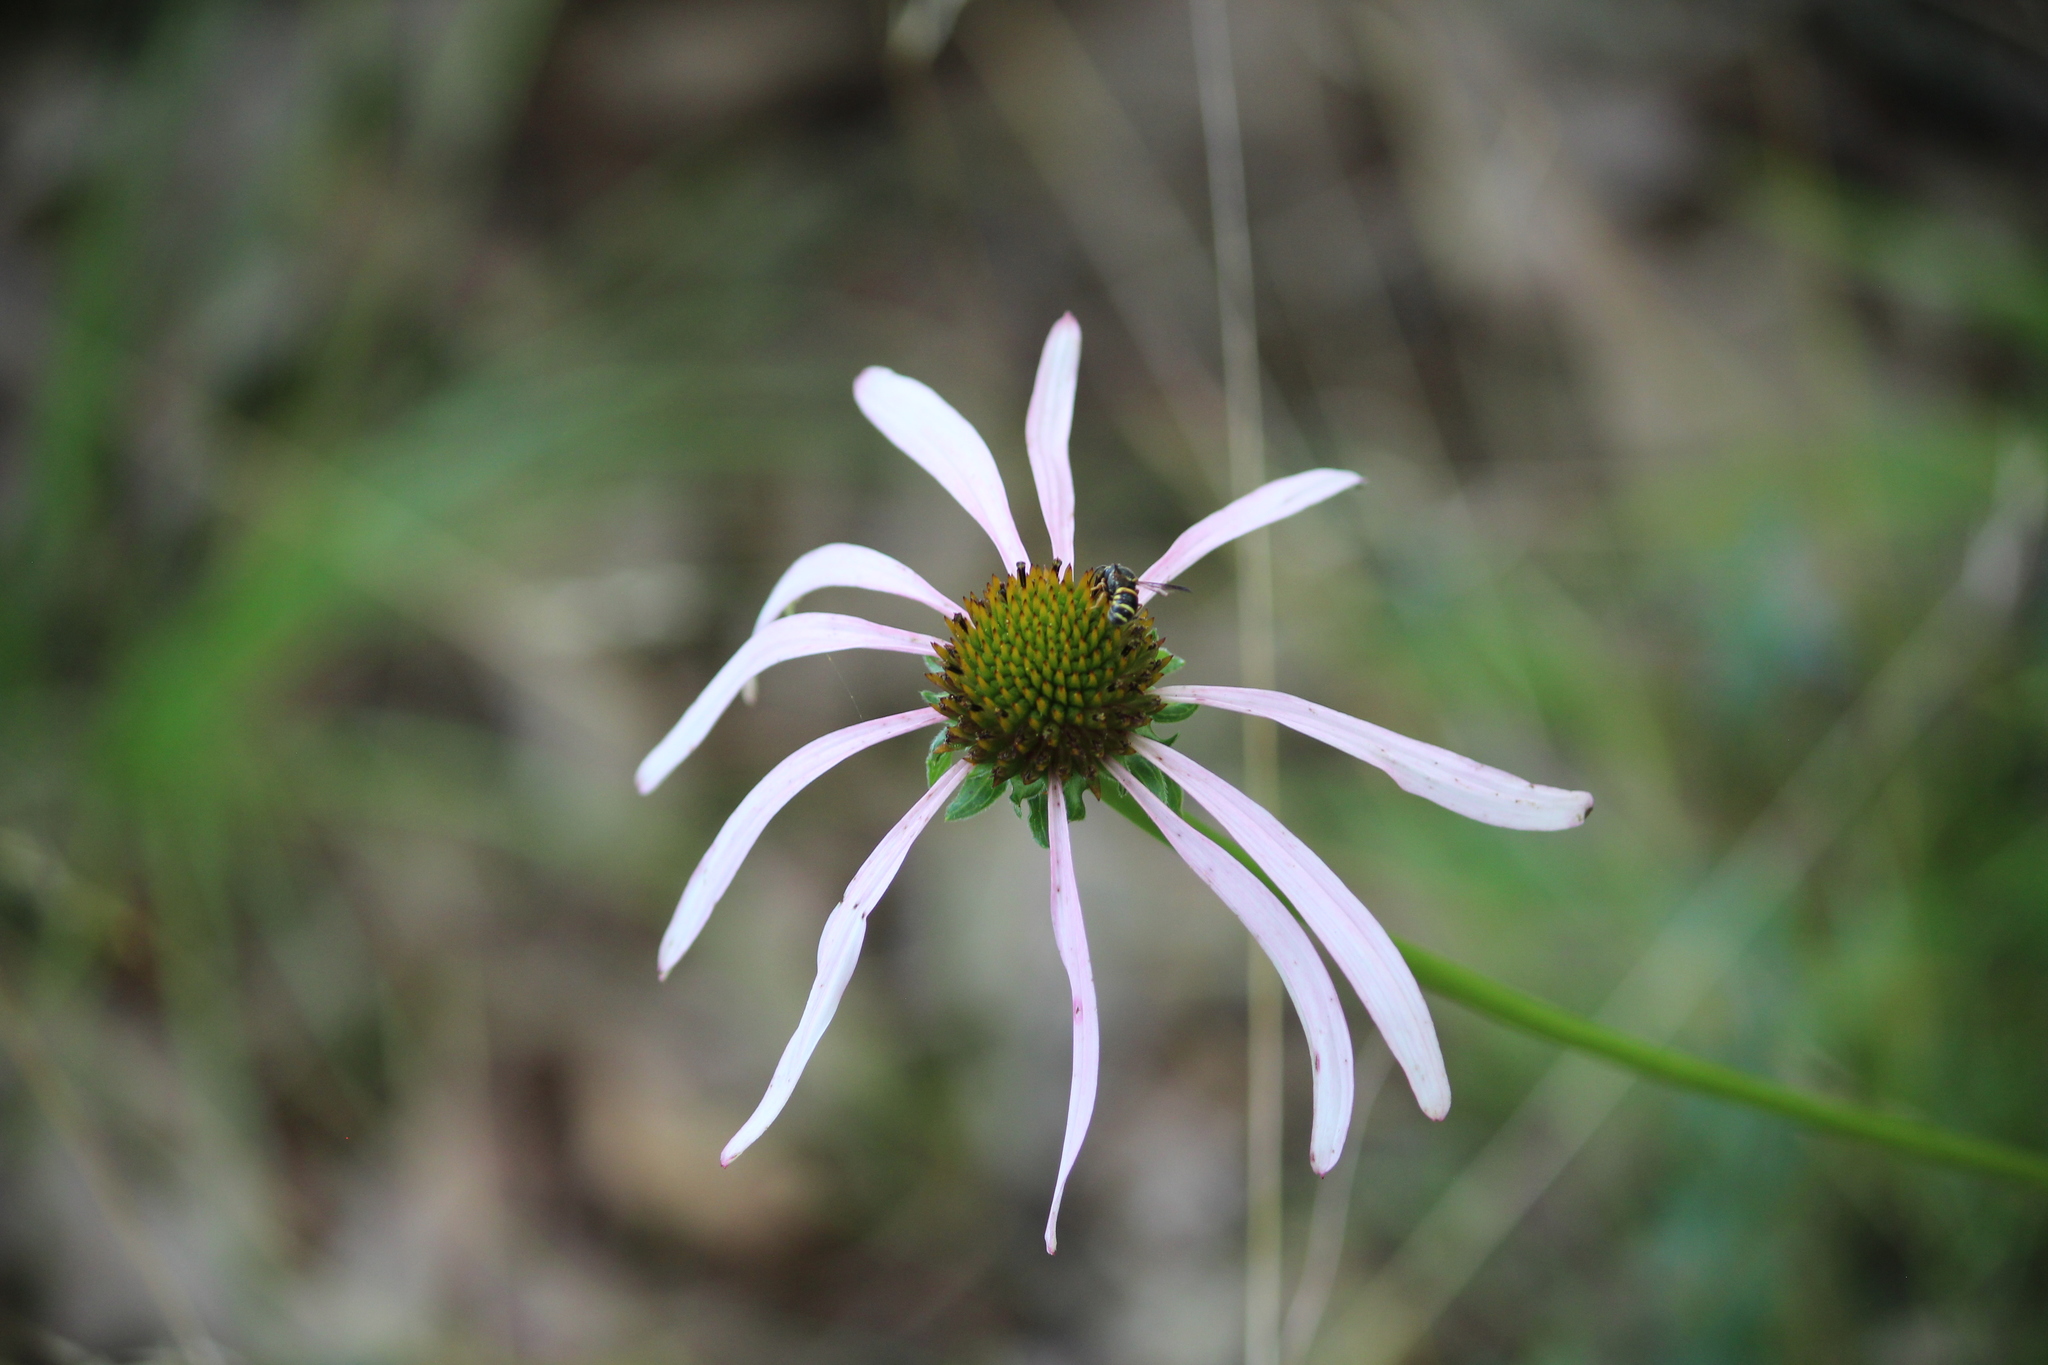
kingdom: Plantae
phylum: Tracheophyta
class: Magnoliopsida
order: Asterales
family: Asteraceae
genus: Echinacea
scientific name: Echinacea laevigata
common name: Smooth coneflower
